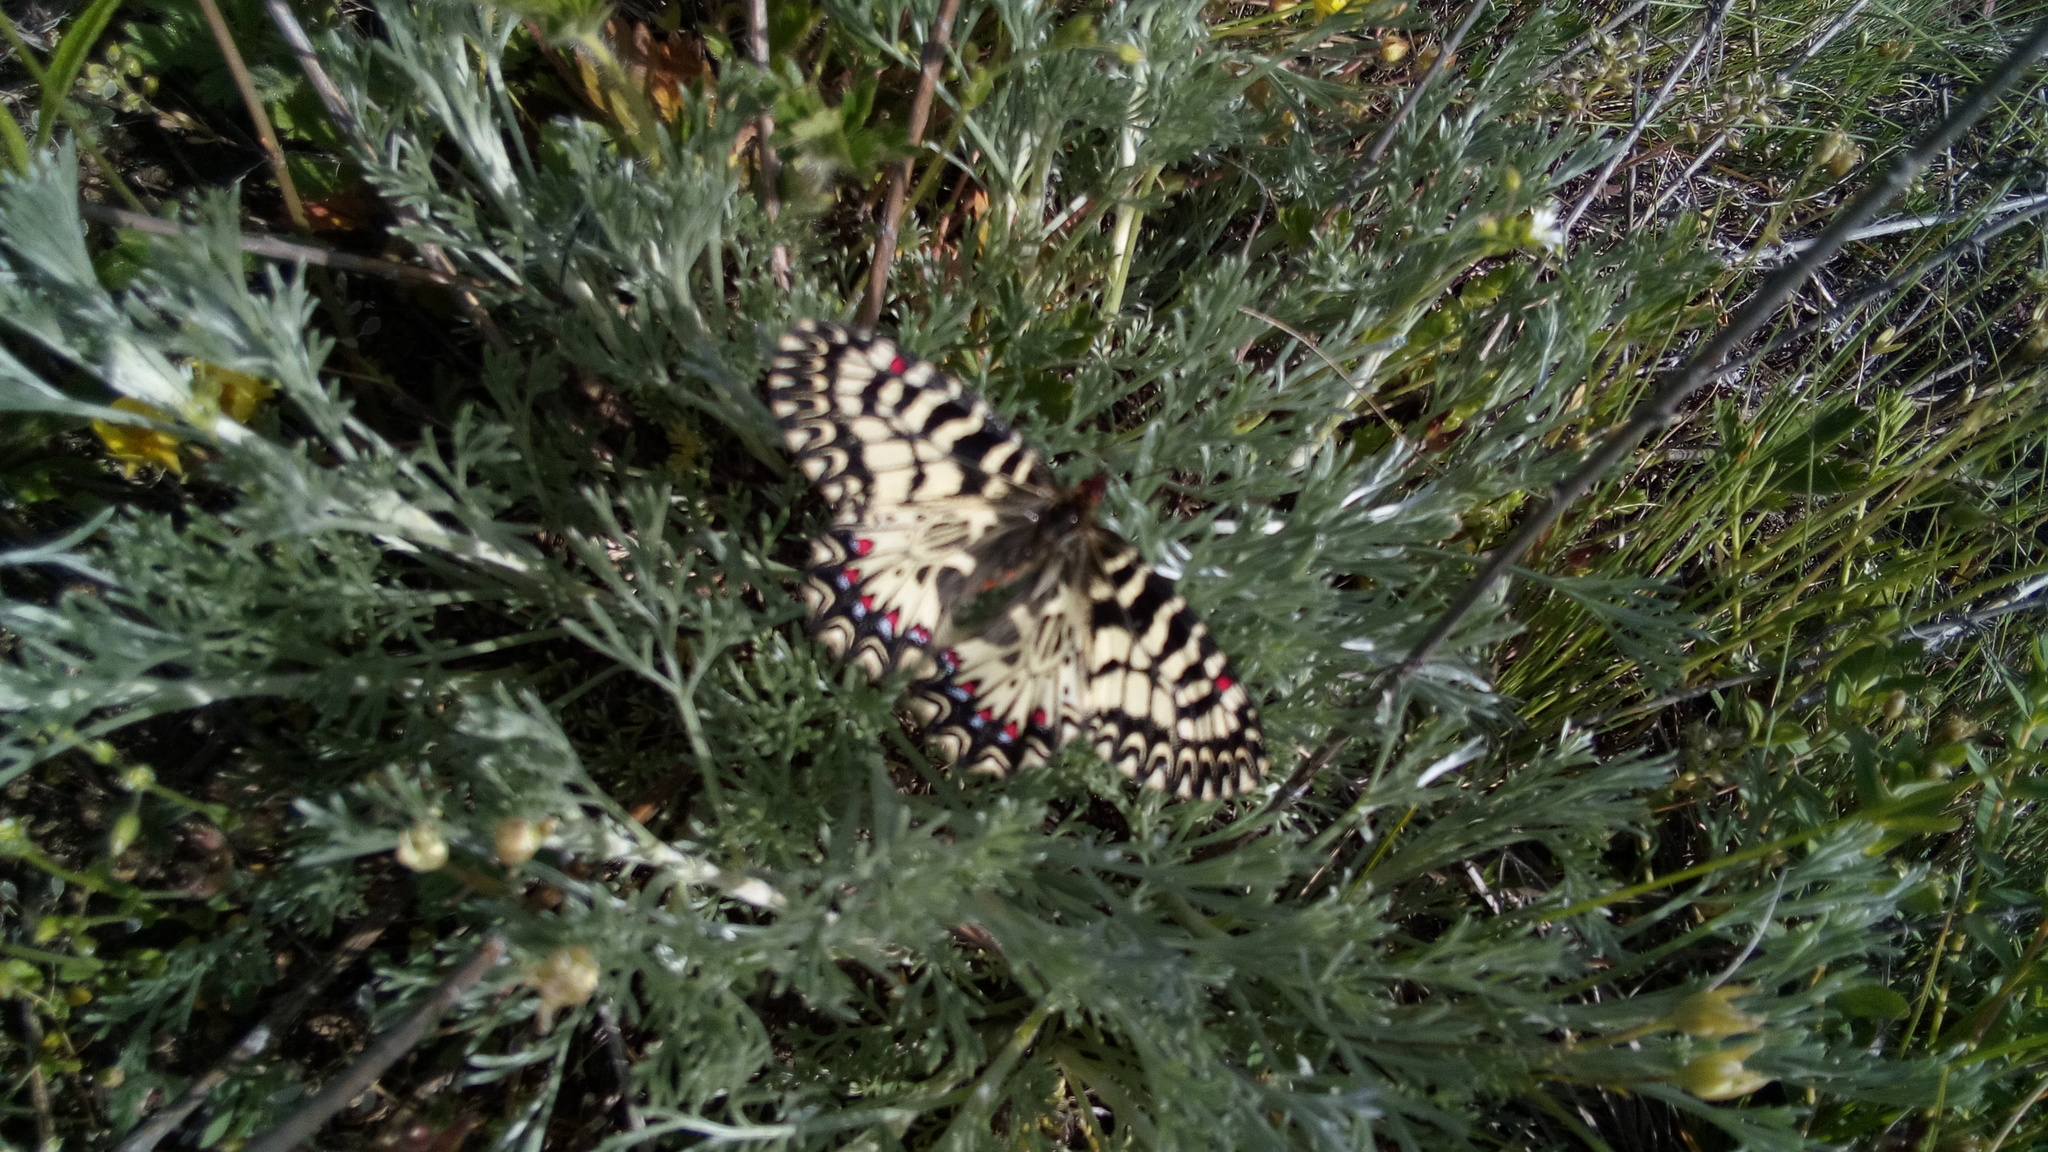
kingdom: Animalia
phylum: Arthropoda
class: Insecta
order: Lepidoptera
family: Papilionidae
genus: Zerynthia
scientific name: Zerynthia polyxena
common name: Southern festoon
